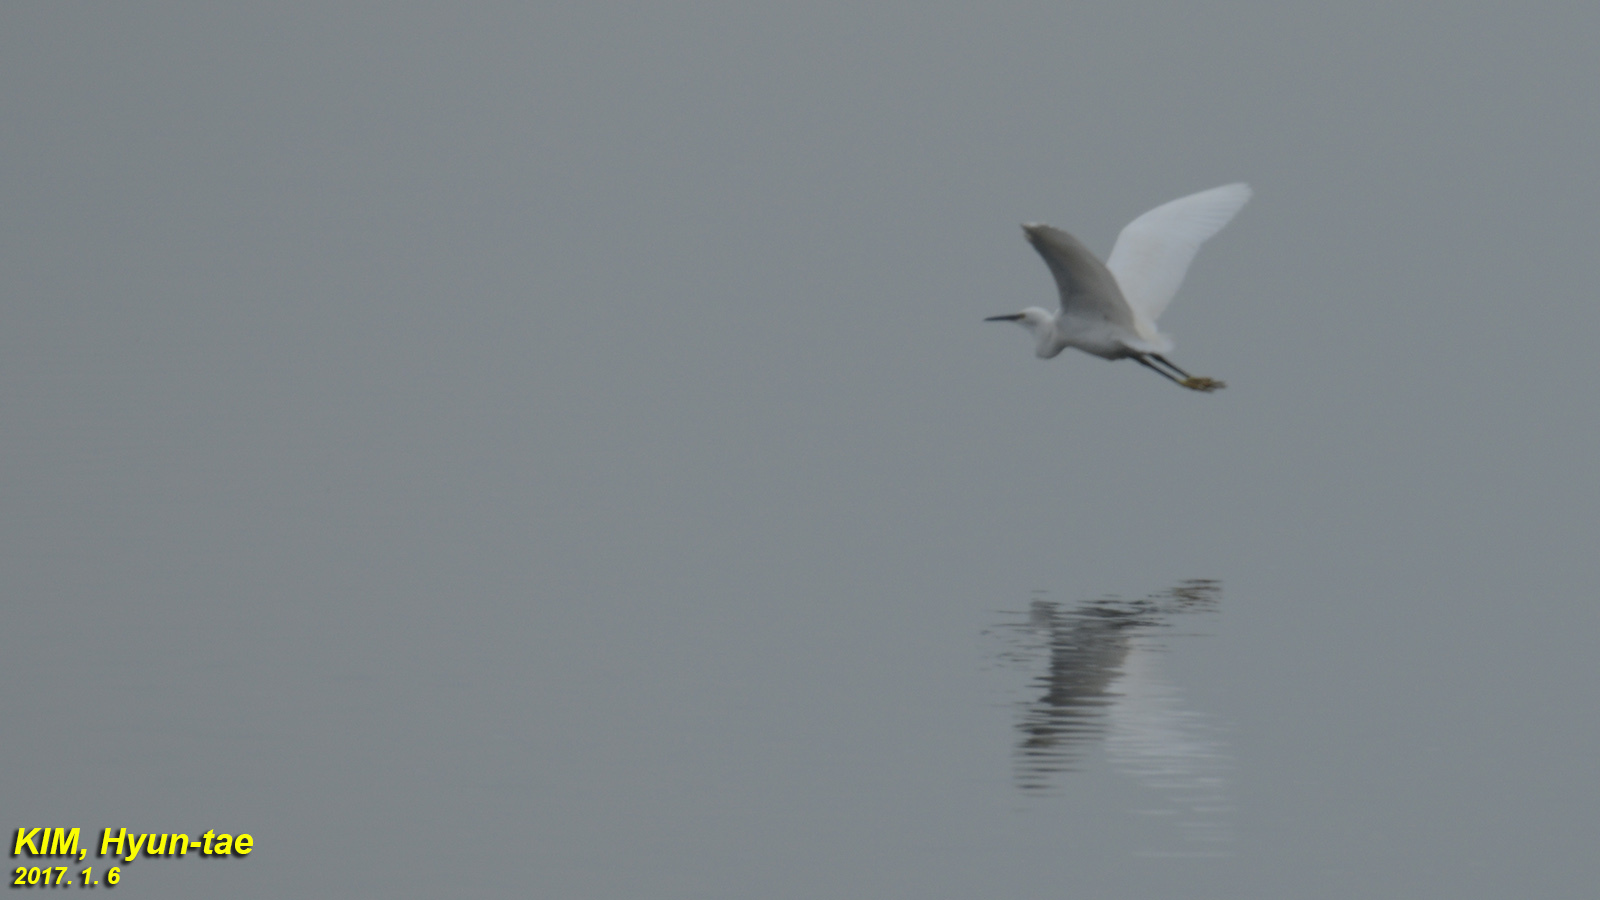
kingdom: Animalia
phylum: Chordata
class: Aves
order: Pelecaniformes
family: Ardeidae
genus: Egretta
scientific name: Egretta garzetta
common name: Little egret
